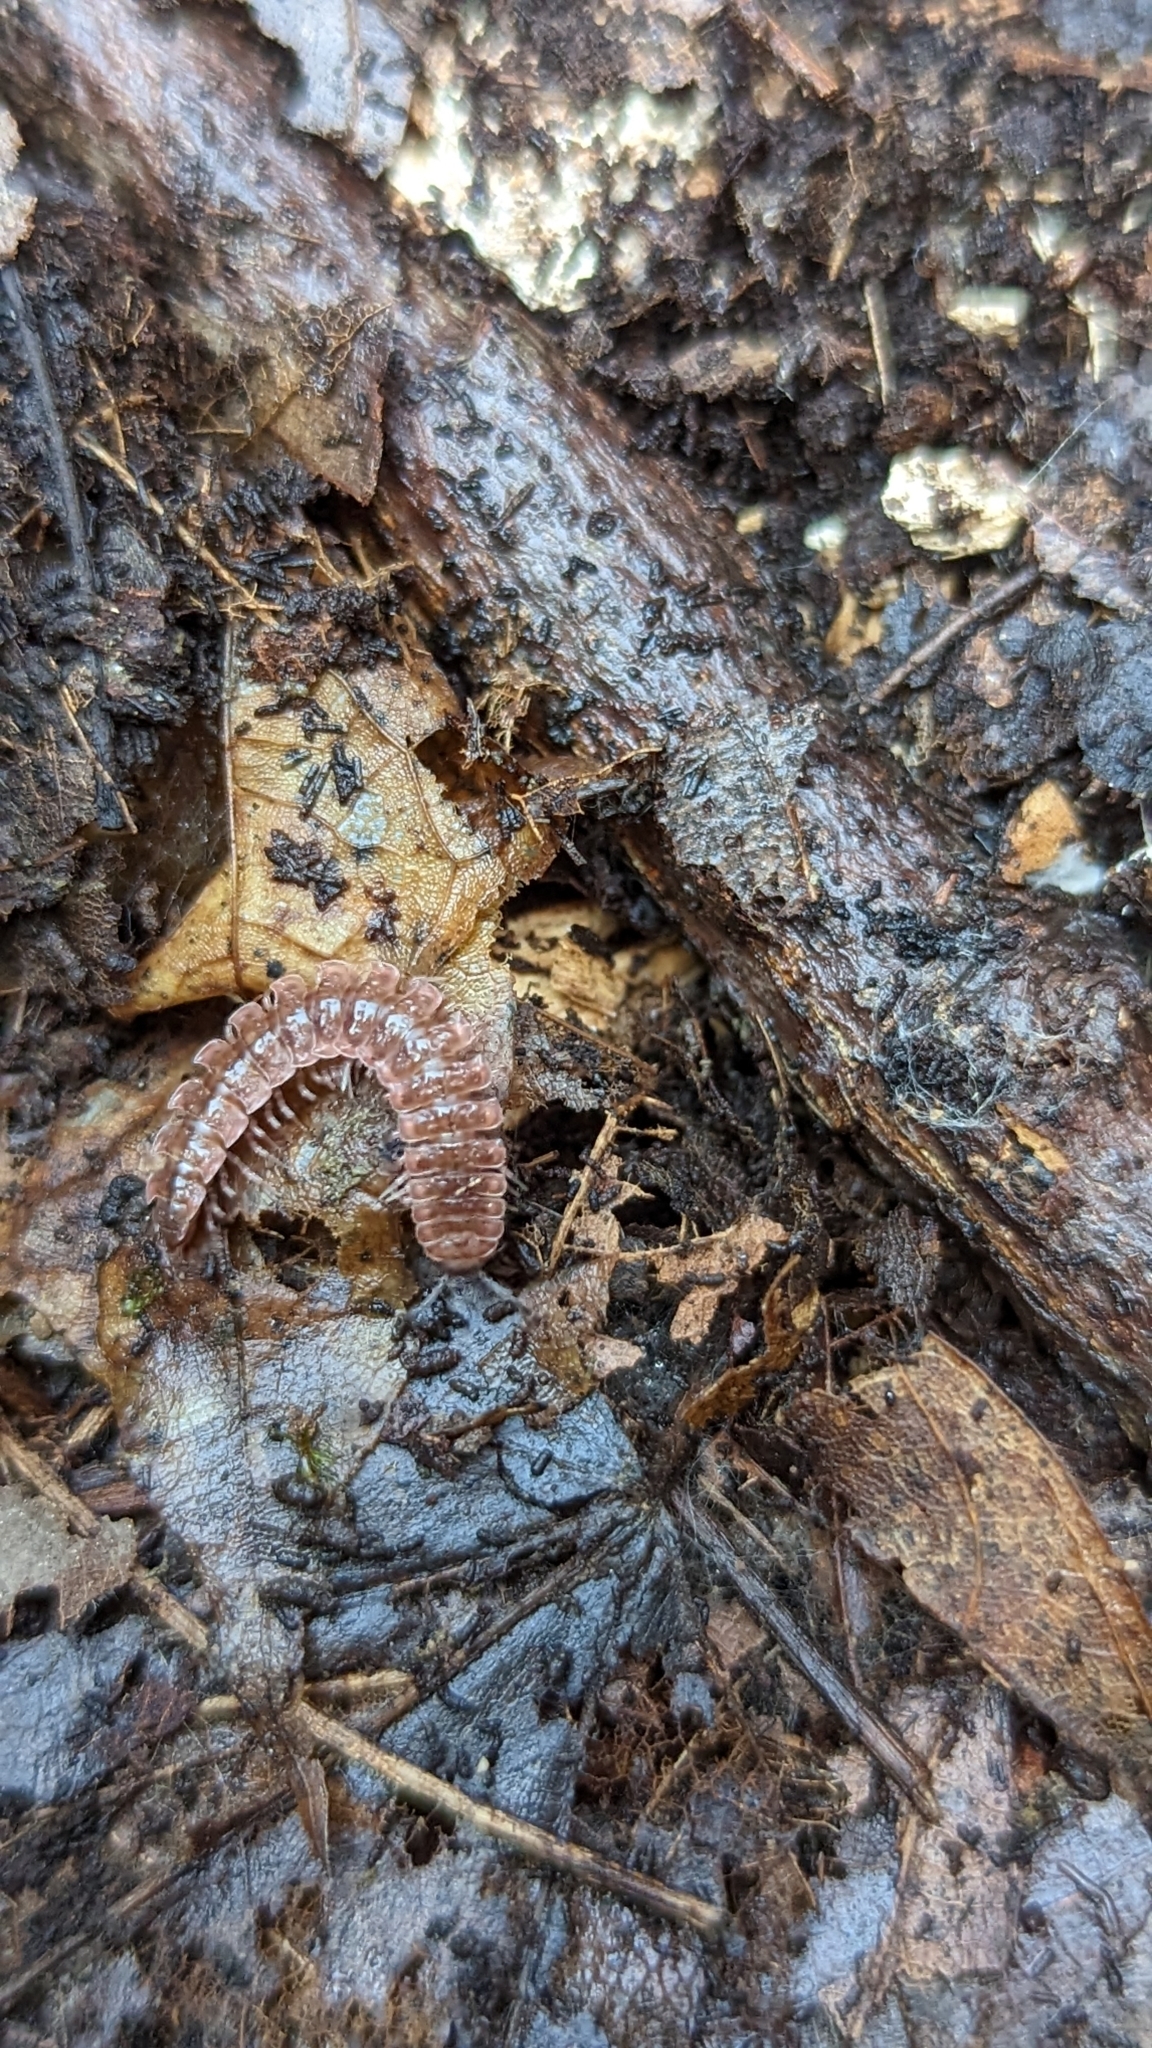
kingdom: Animalia
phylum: Arthropoda
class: Diplopoda
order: Polydesmida
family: Polydesmidae
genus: Pseudopolydesmus
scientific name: Pseudopolydesmus serratus
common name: Common pink flat-back millipede
